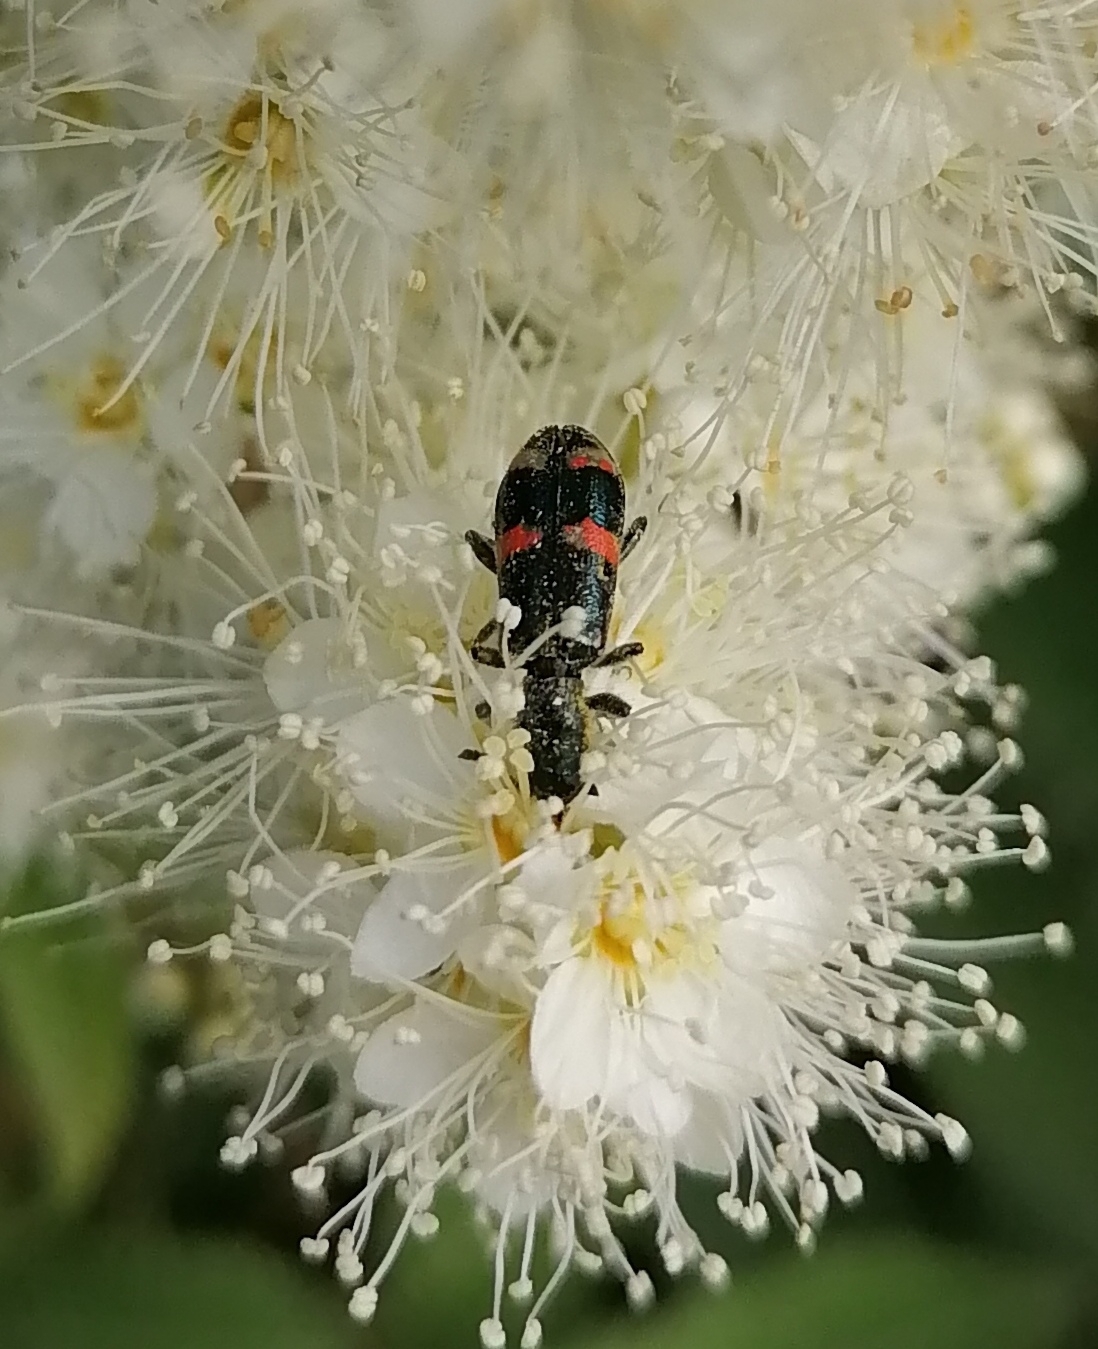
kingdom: Animalia
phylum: Arthropoda
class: Insecta
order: Coleoptera
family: Cleridae
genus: Trichodes
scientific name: Trichodes
